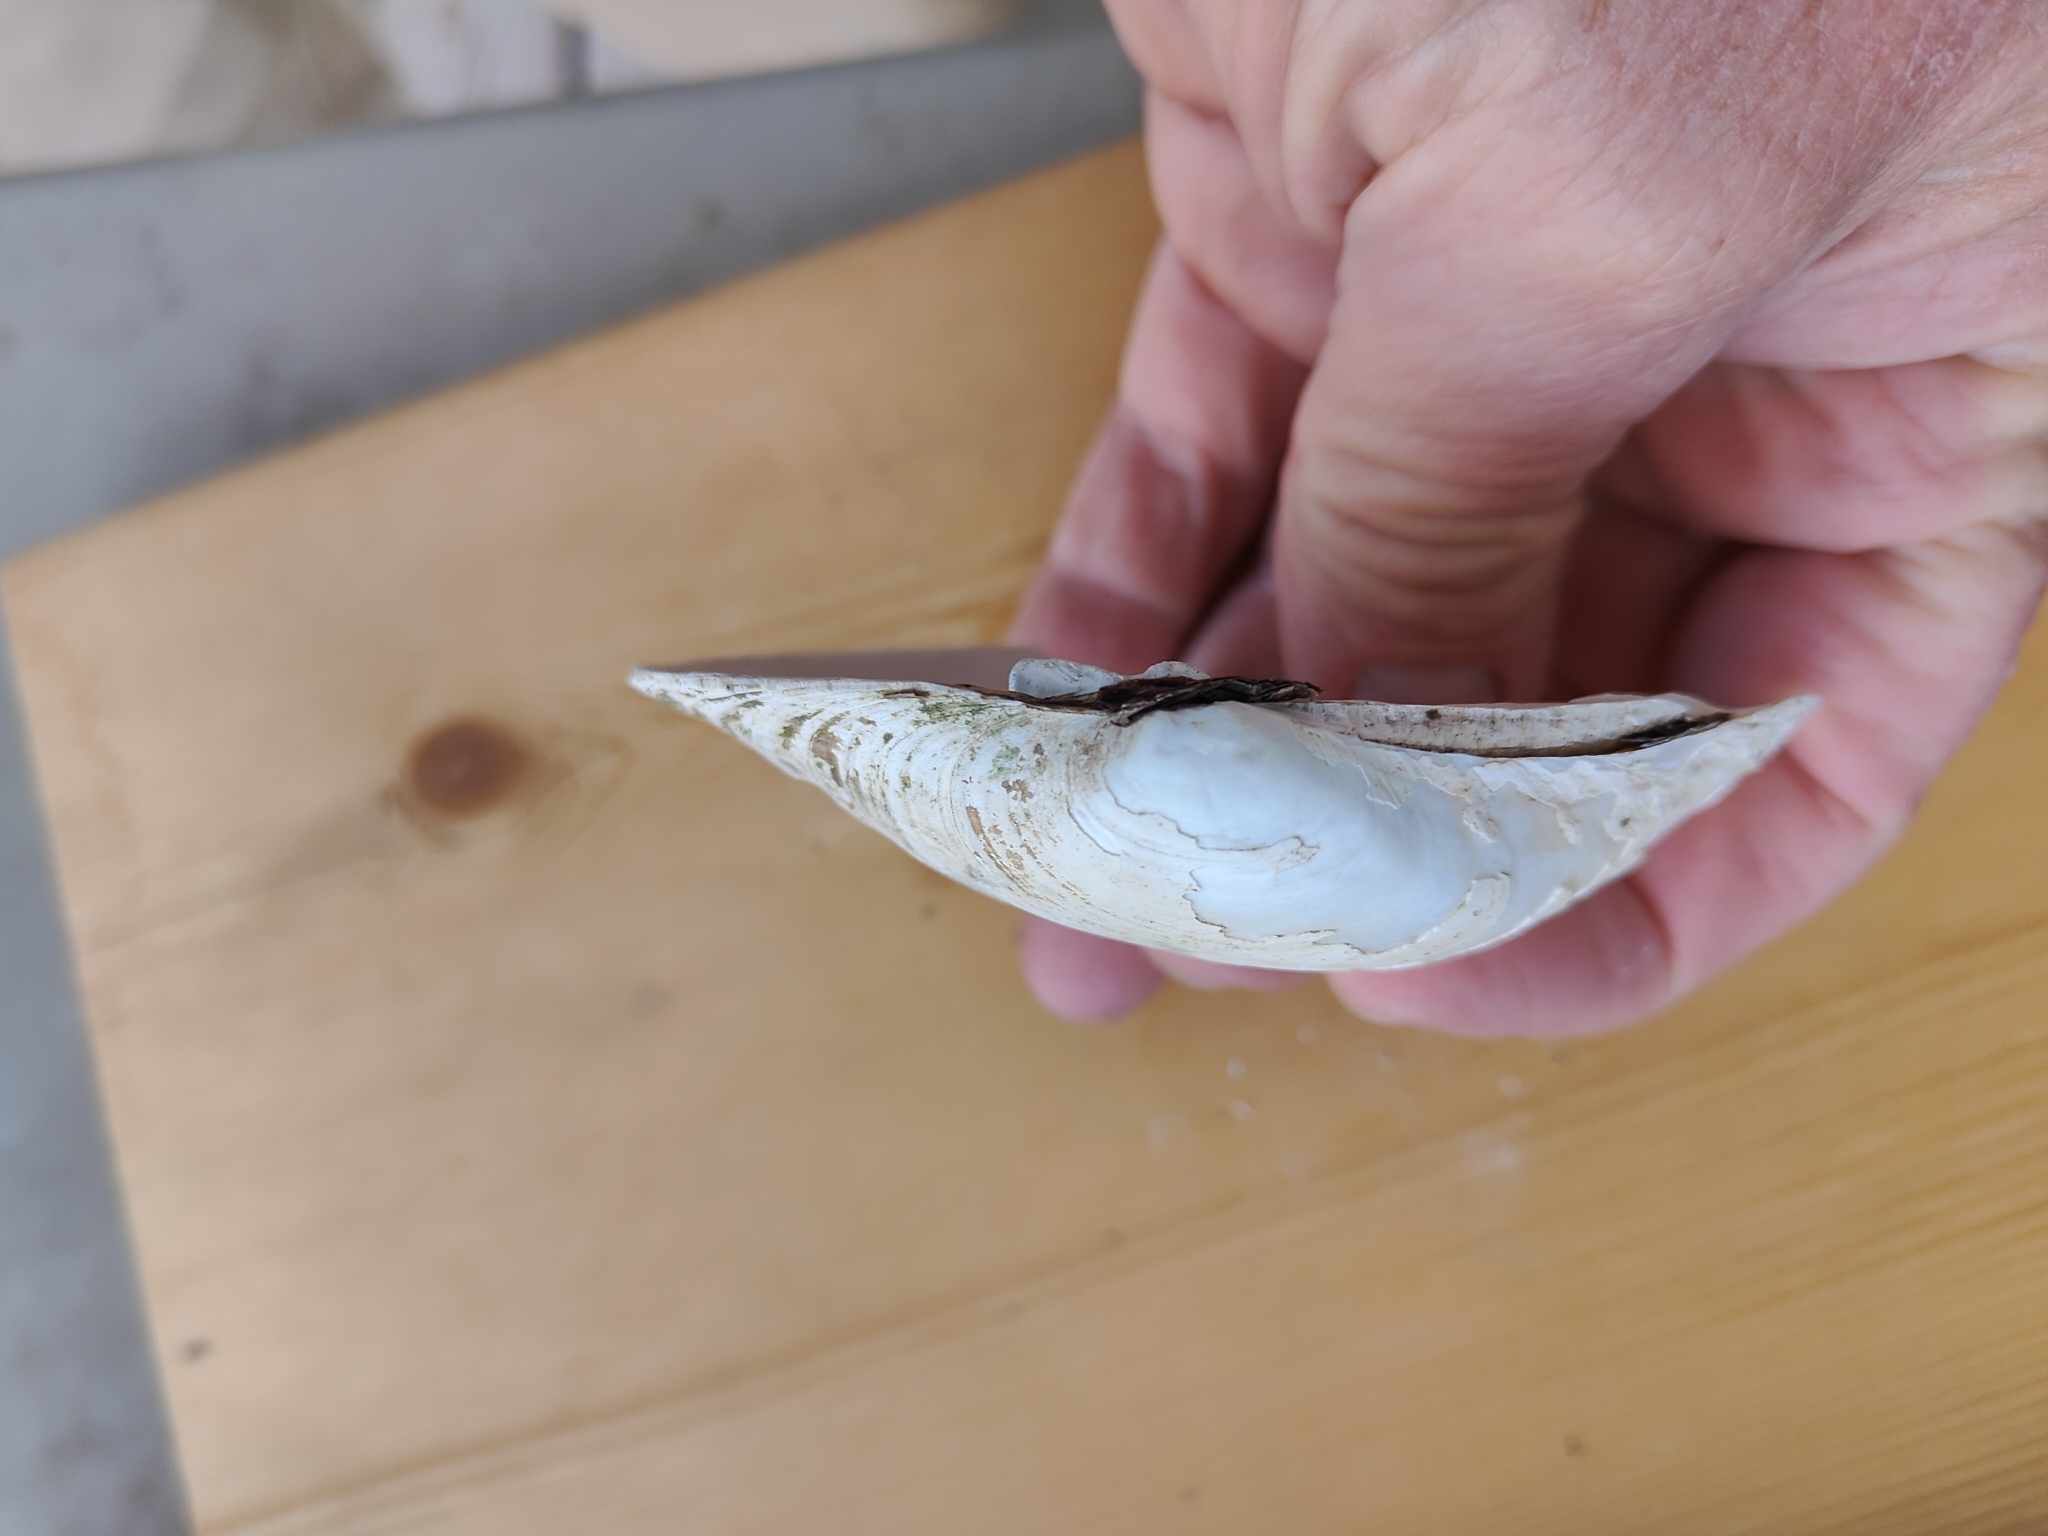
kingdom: Animalia
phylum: Mollusca
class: Bivalvia
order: Unionida
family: Unionidae
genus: Lampsilis
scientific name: Lampsilis cardium
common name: Plain pocketbook
